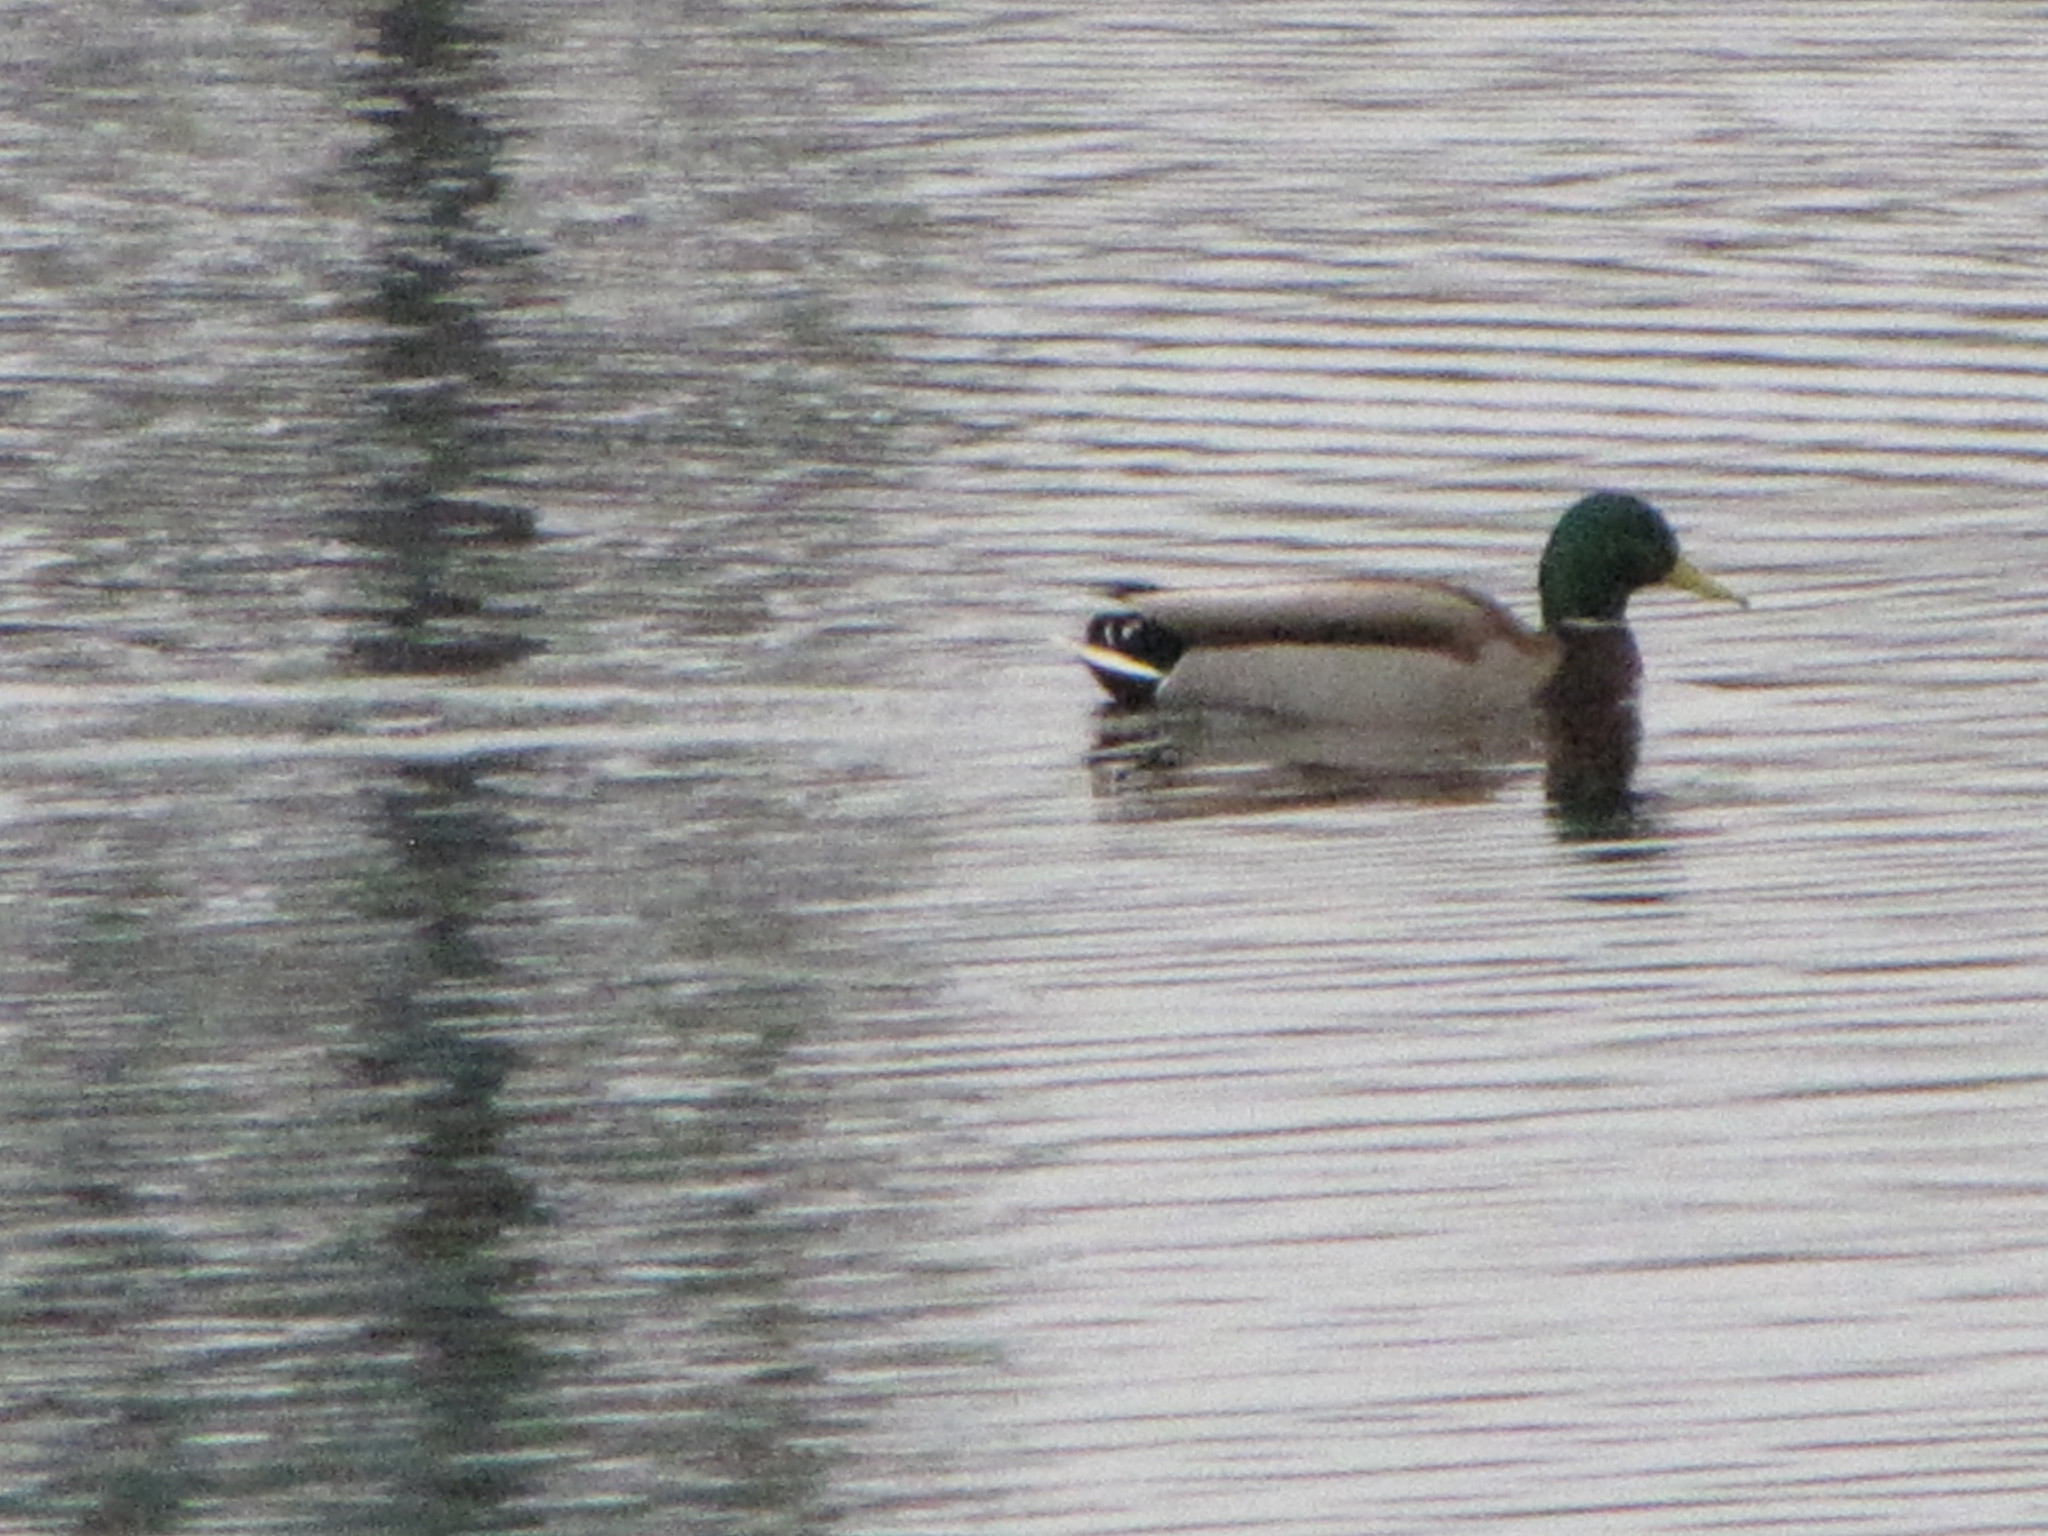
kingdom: Animalia
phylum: Chordata
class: Aves
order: Anseriformes
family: Anatidae
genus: Anas
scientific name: Anas platyrhynchos
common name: Mallard
